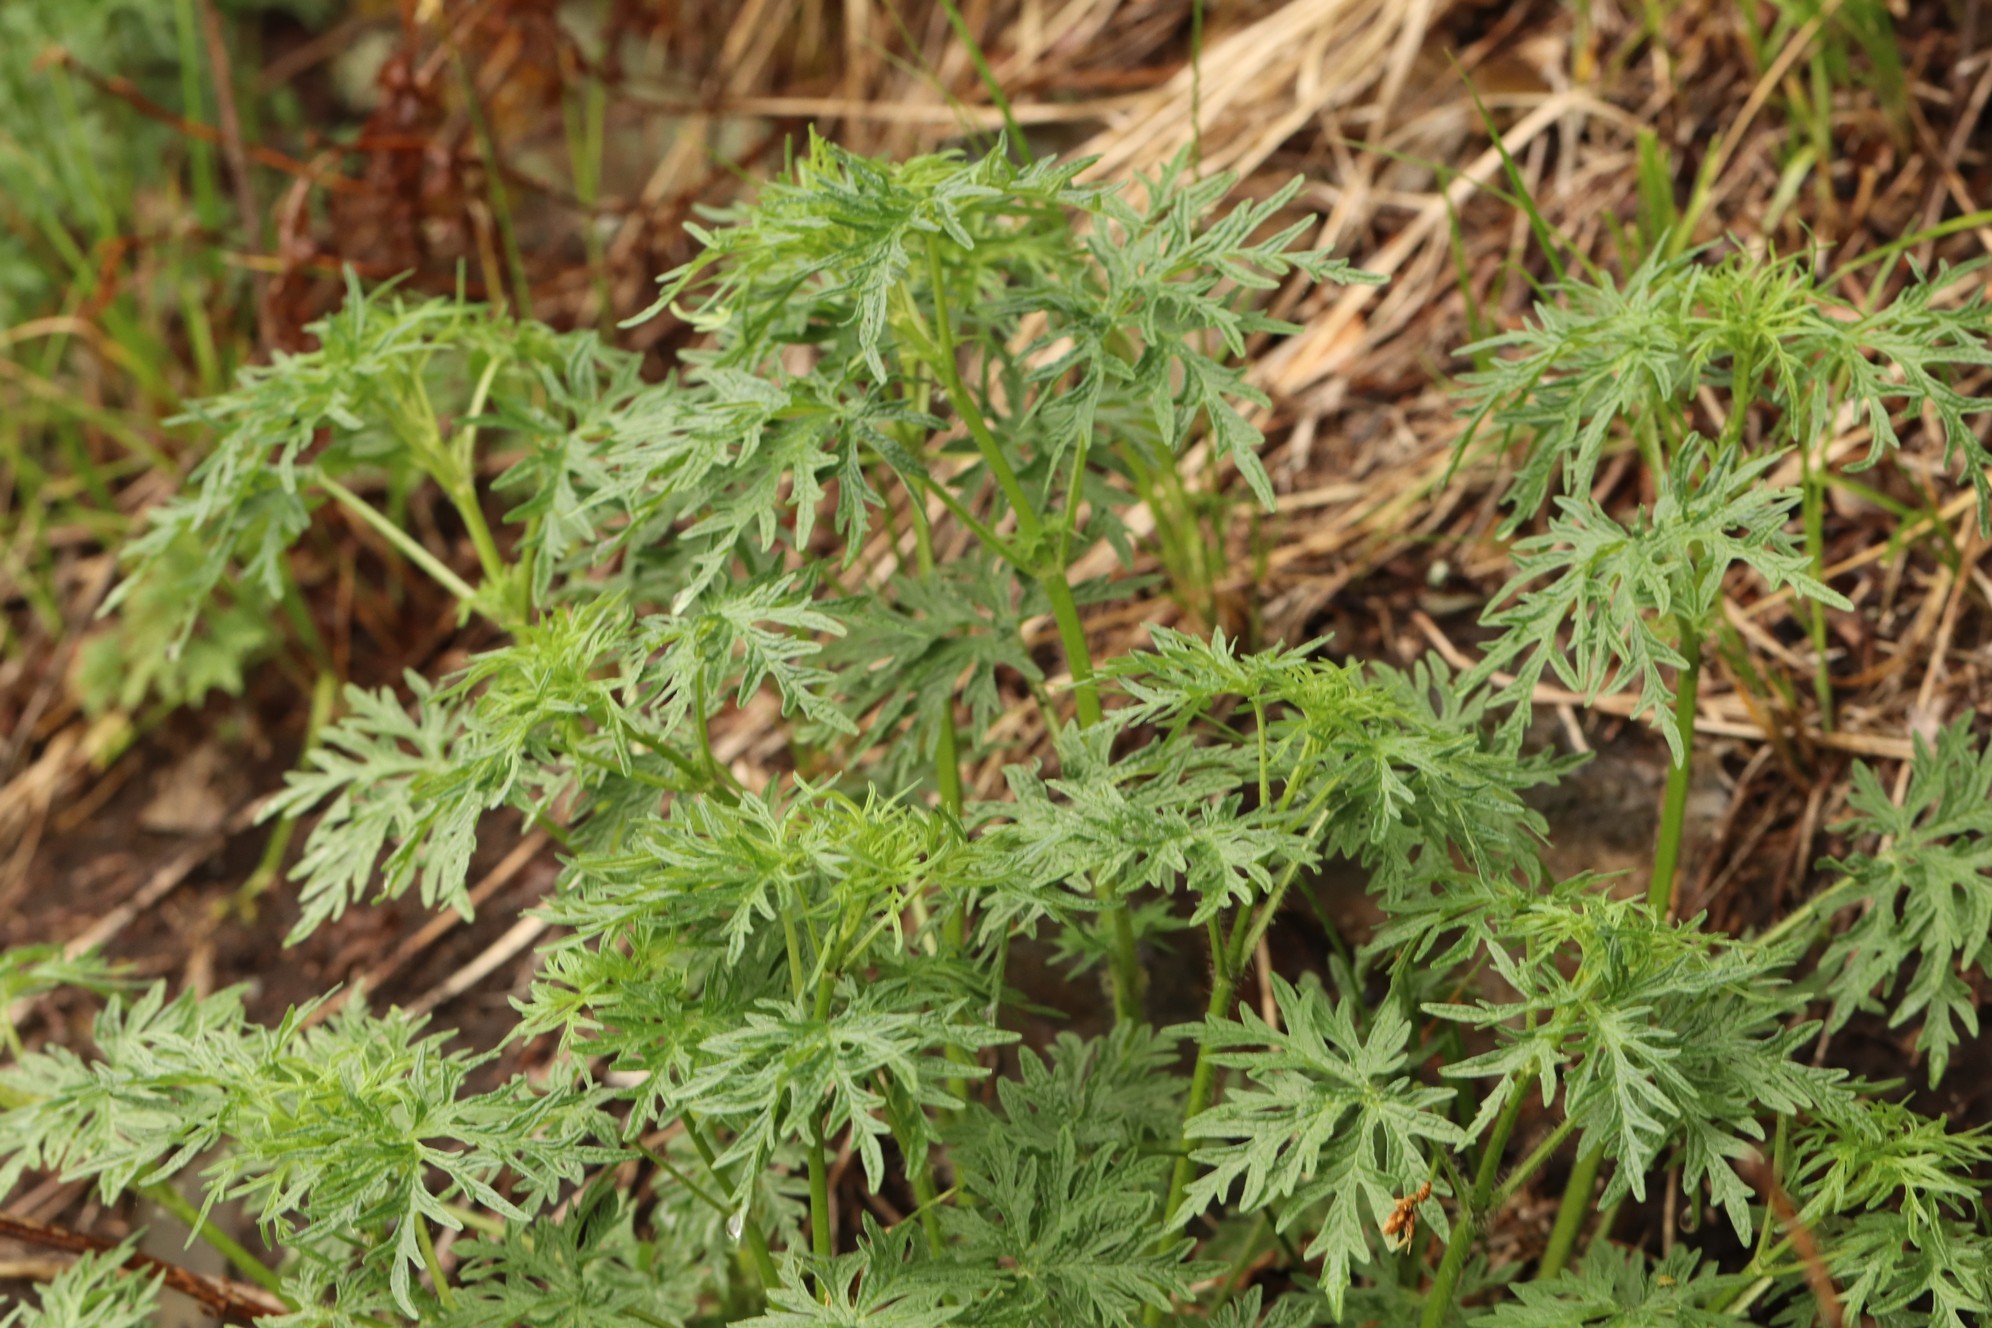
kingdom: Plantae
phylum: Tracheophyta
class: Magnoliopsida
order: Lamiales
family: Lamiaceae
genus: Leonurus
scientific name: Leonurus tataricus
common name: Chinese motherwort
